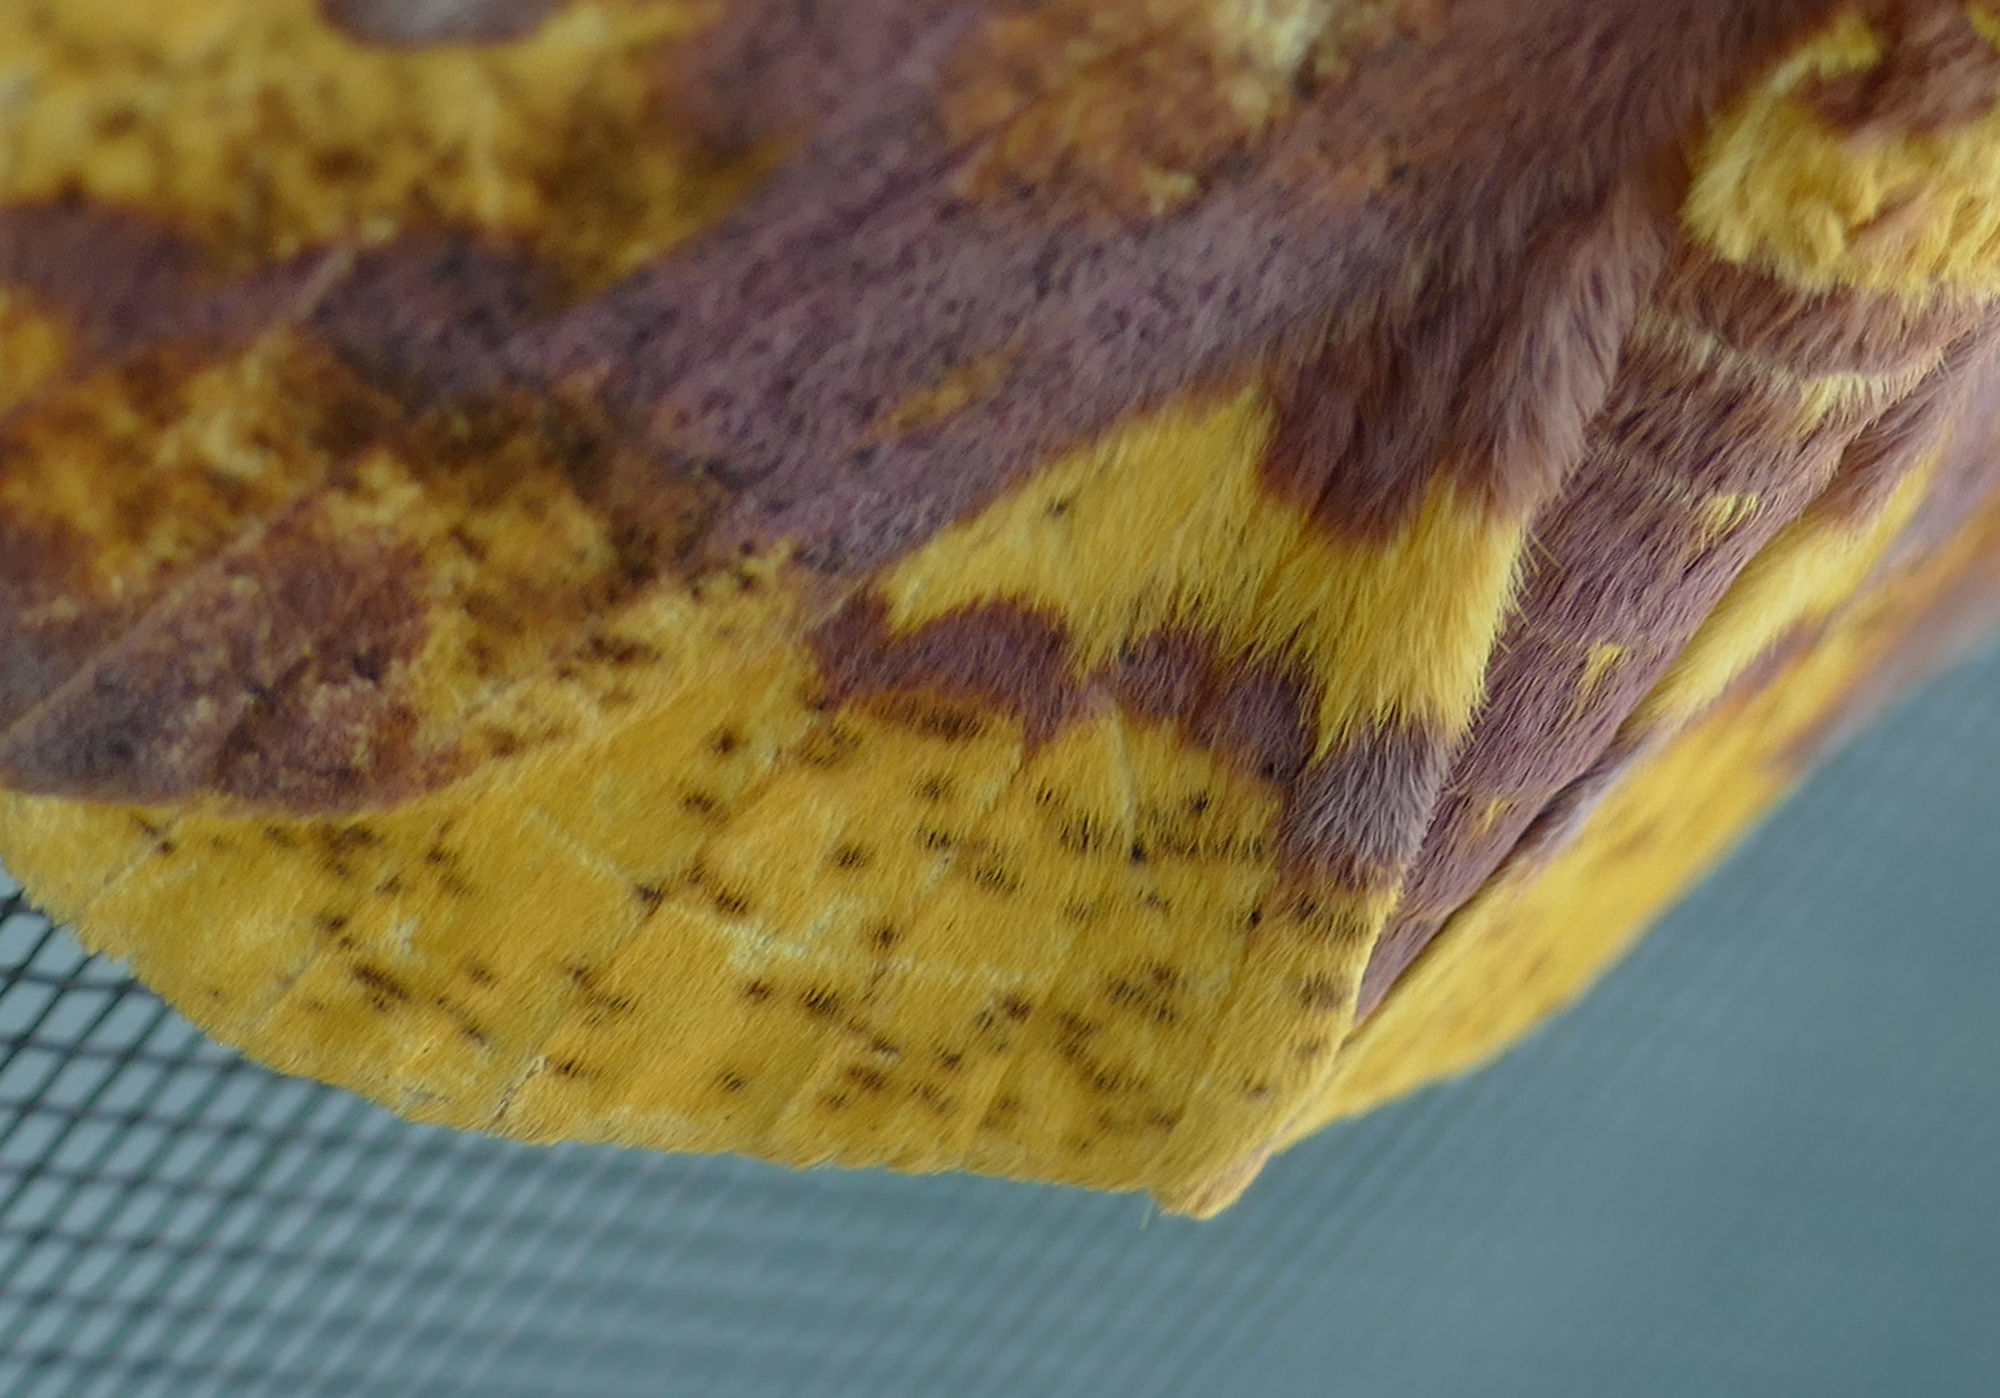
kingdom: Animalia
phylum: Arthropoda
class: Insecta
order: Lepidoptera
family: Saturniidae
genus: Eacles
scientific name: Eacles imperialis
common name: Imperial moth
